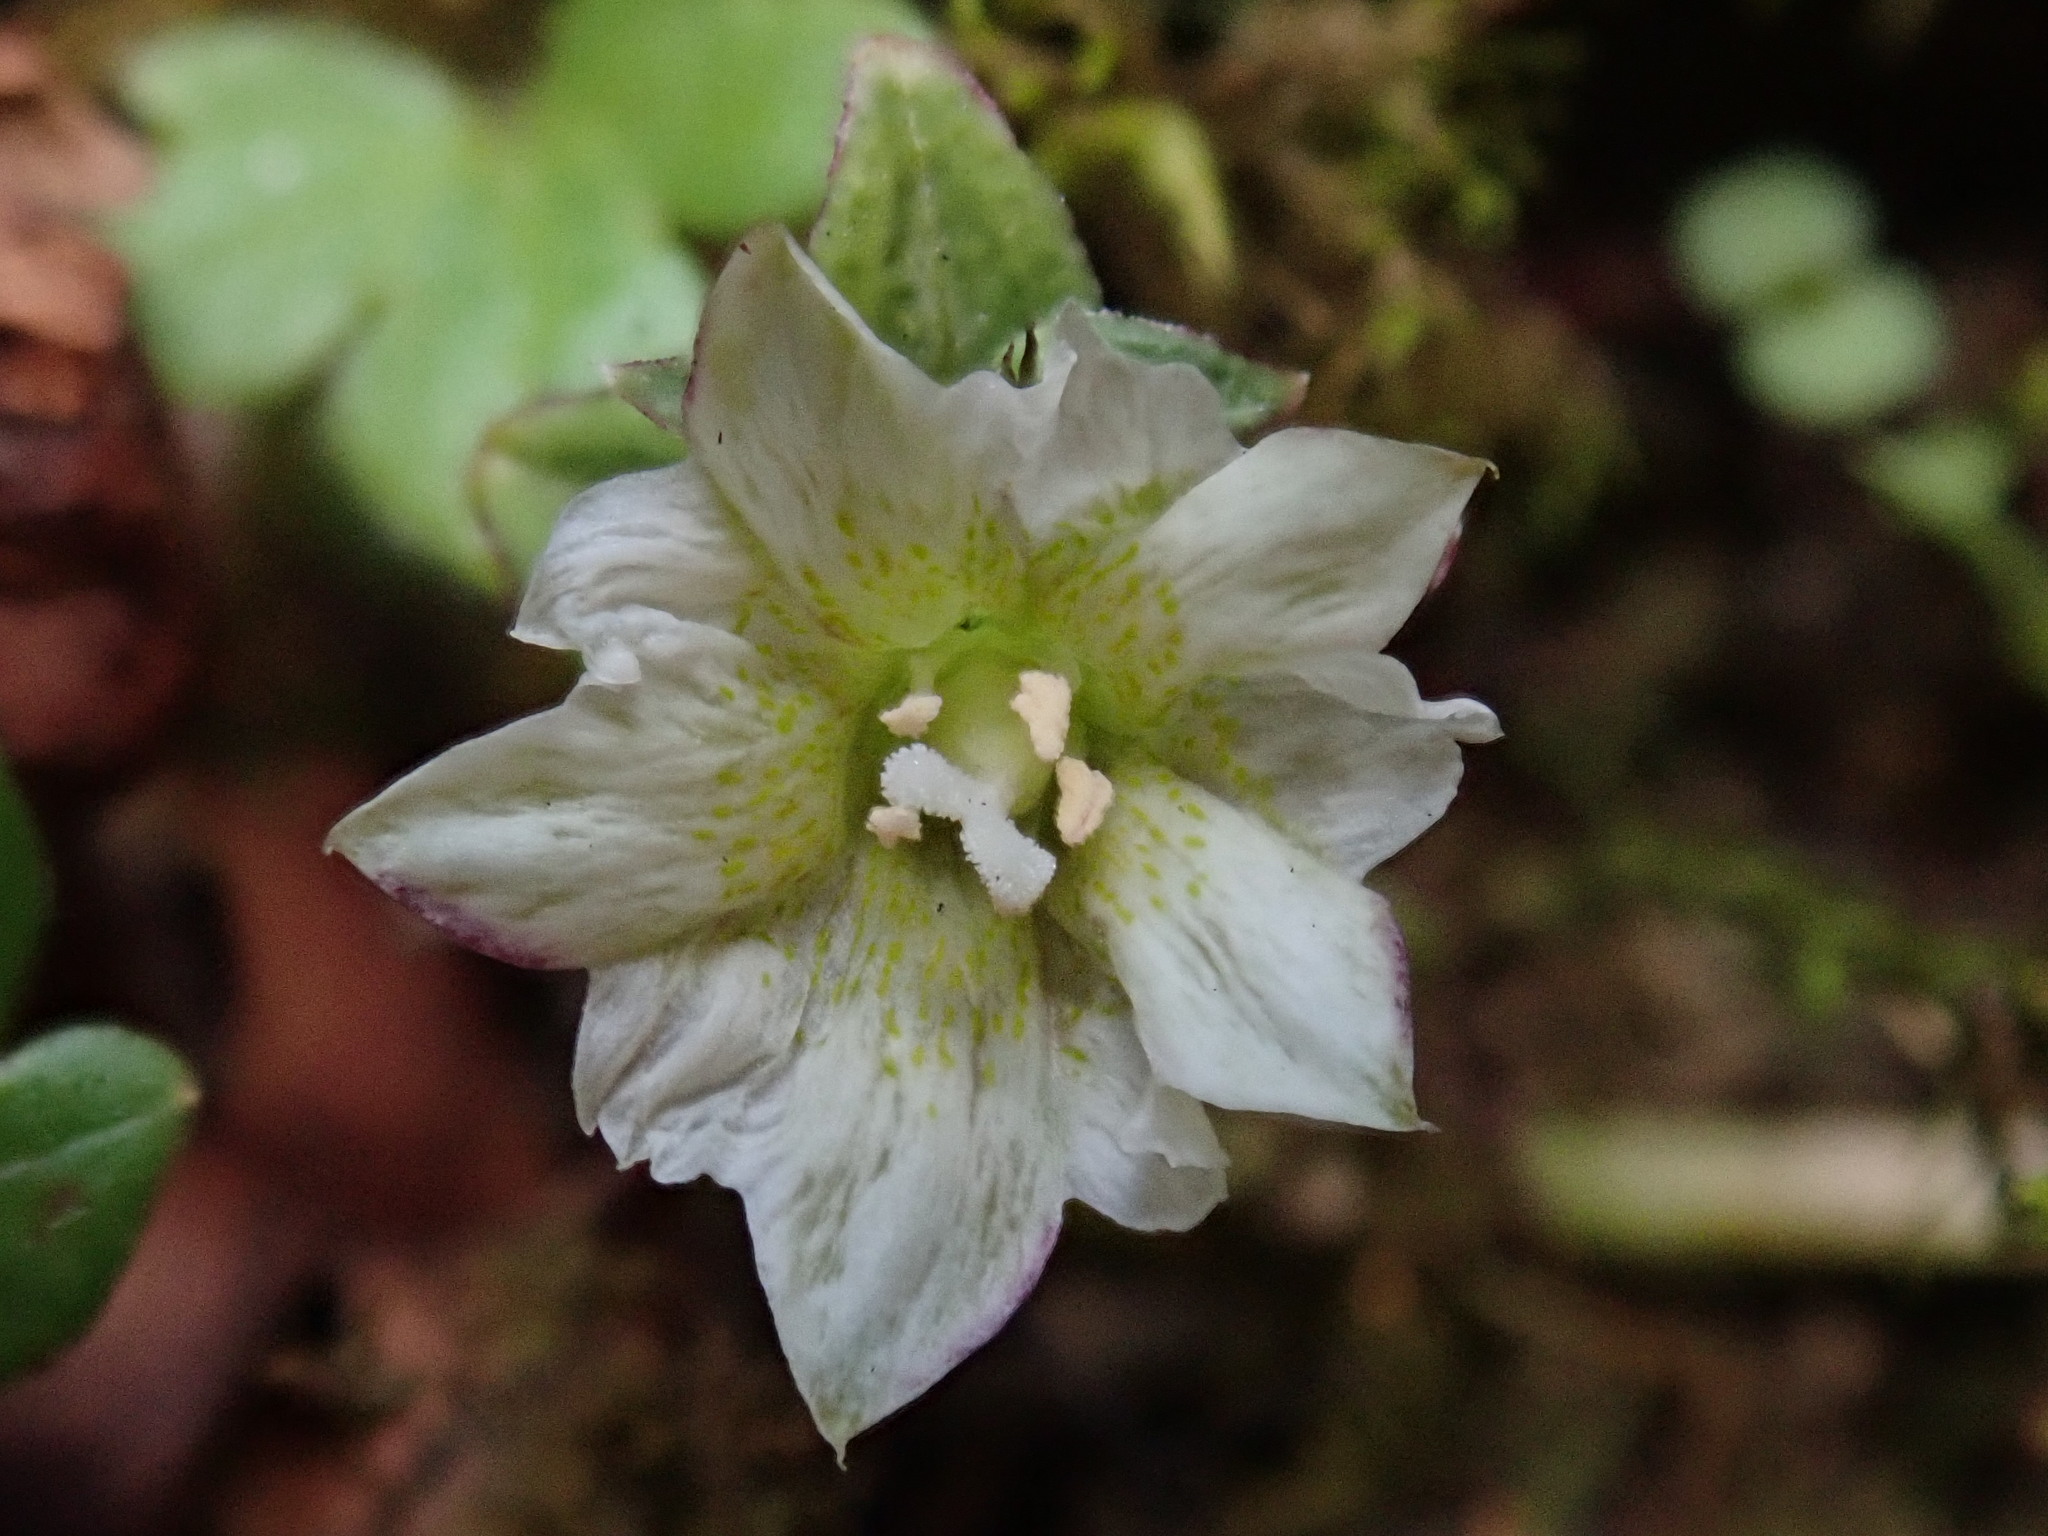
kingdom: Plantae
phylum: Tracheophyta
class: Magnoliopsida
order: Gentianales
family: Gentianaceae
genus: Gentiana
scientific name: Gentiana flavomaculata
